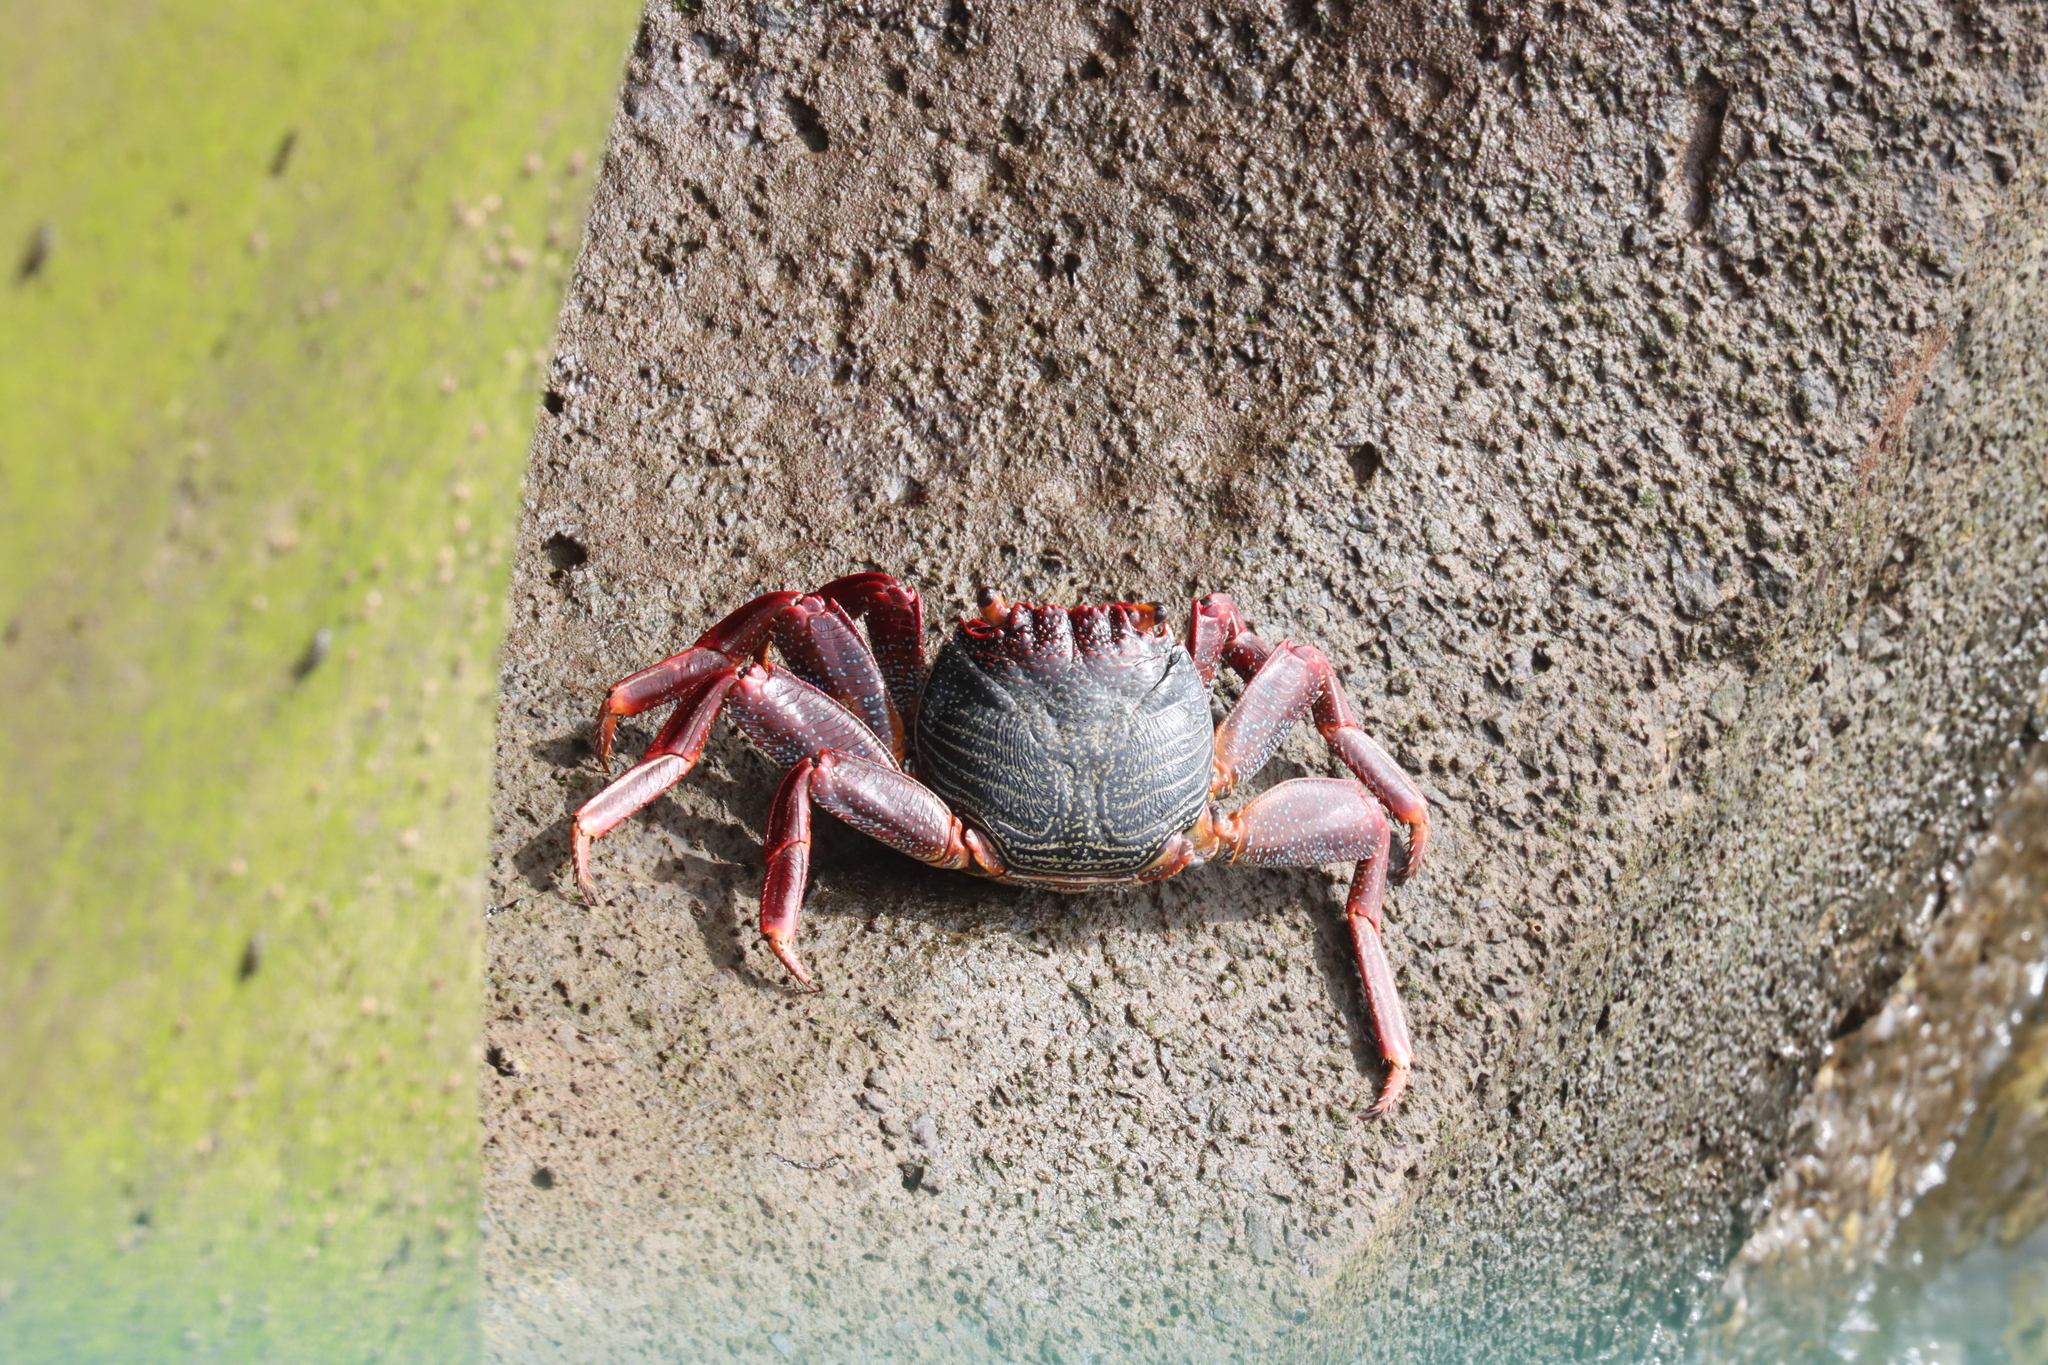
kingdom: Animalia
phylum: Arthropoda
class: Malacostraca
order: Decapoda
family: Grapsidae
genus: Grapsus
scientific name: Grapsus adscensionis
